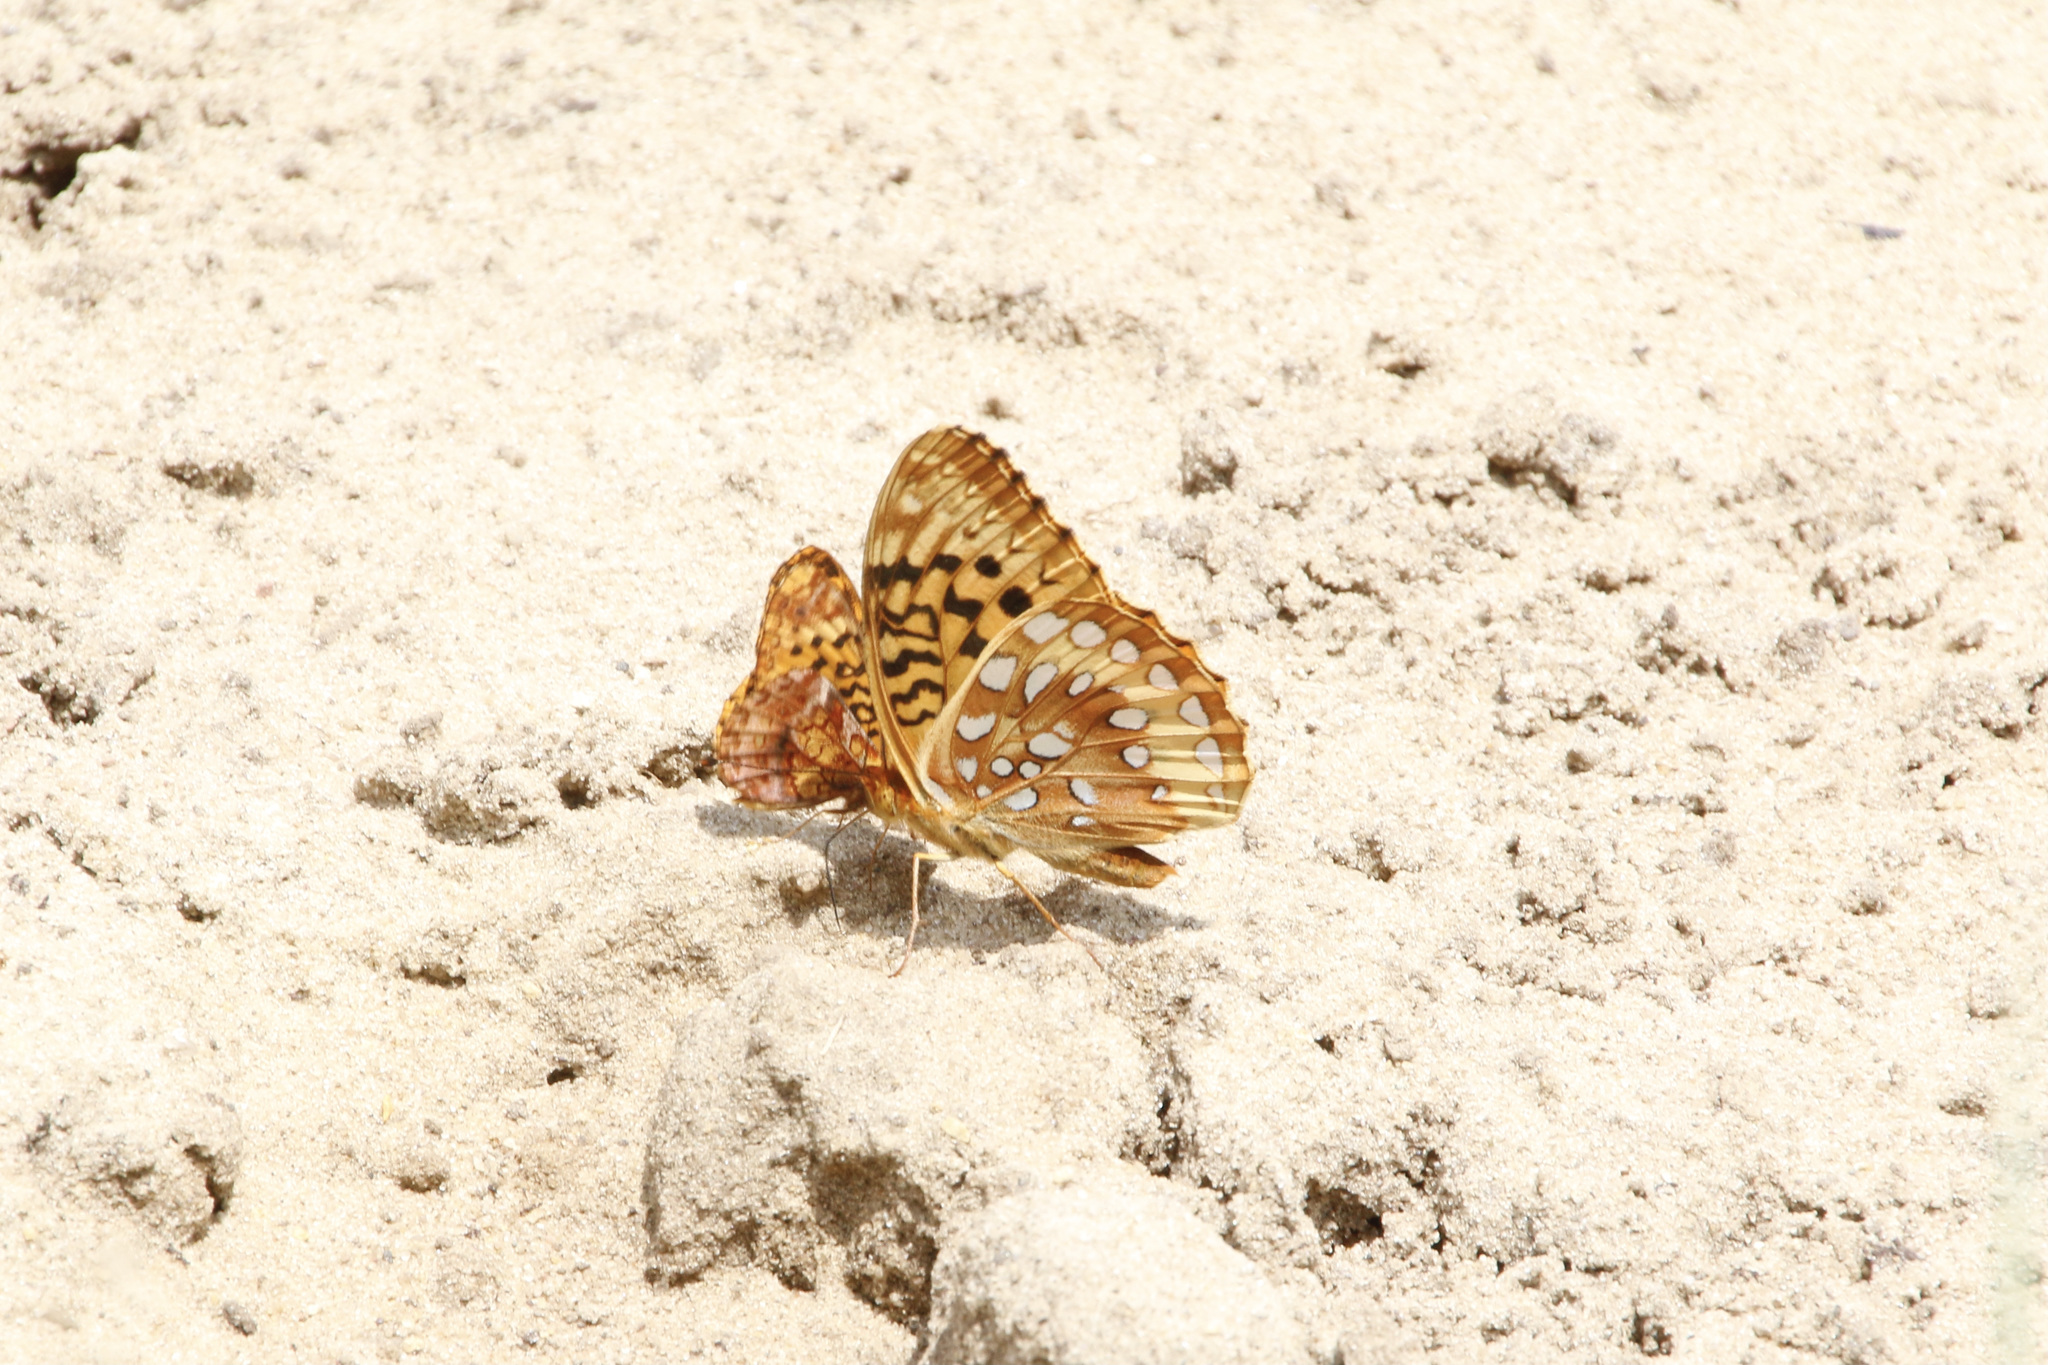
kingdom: Animalia
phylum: Arthropoda
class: Insecta
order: Lepidoptera
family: Nymphalidae
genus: Speyeria
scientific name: Speyeria cybele
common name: Great spangled fritillary
